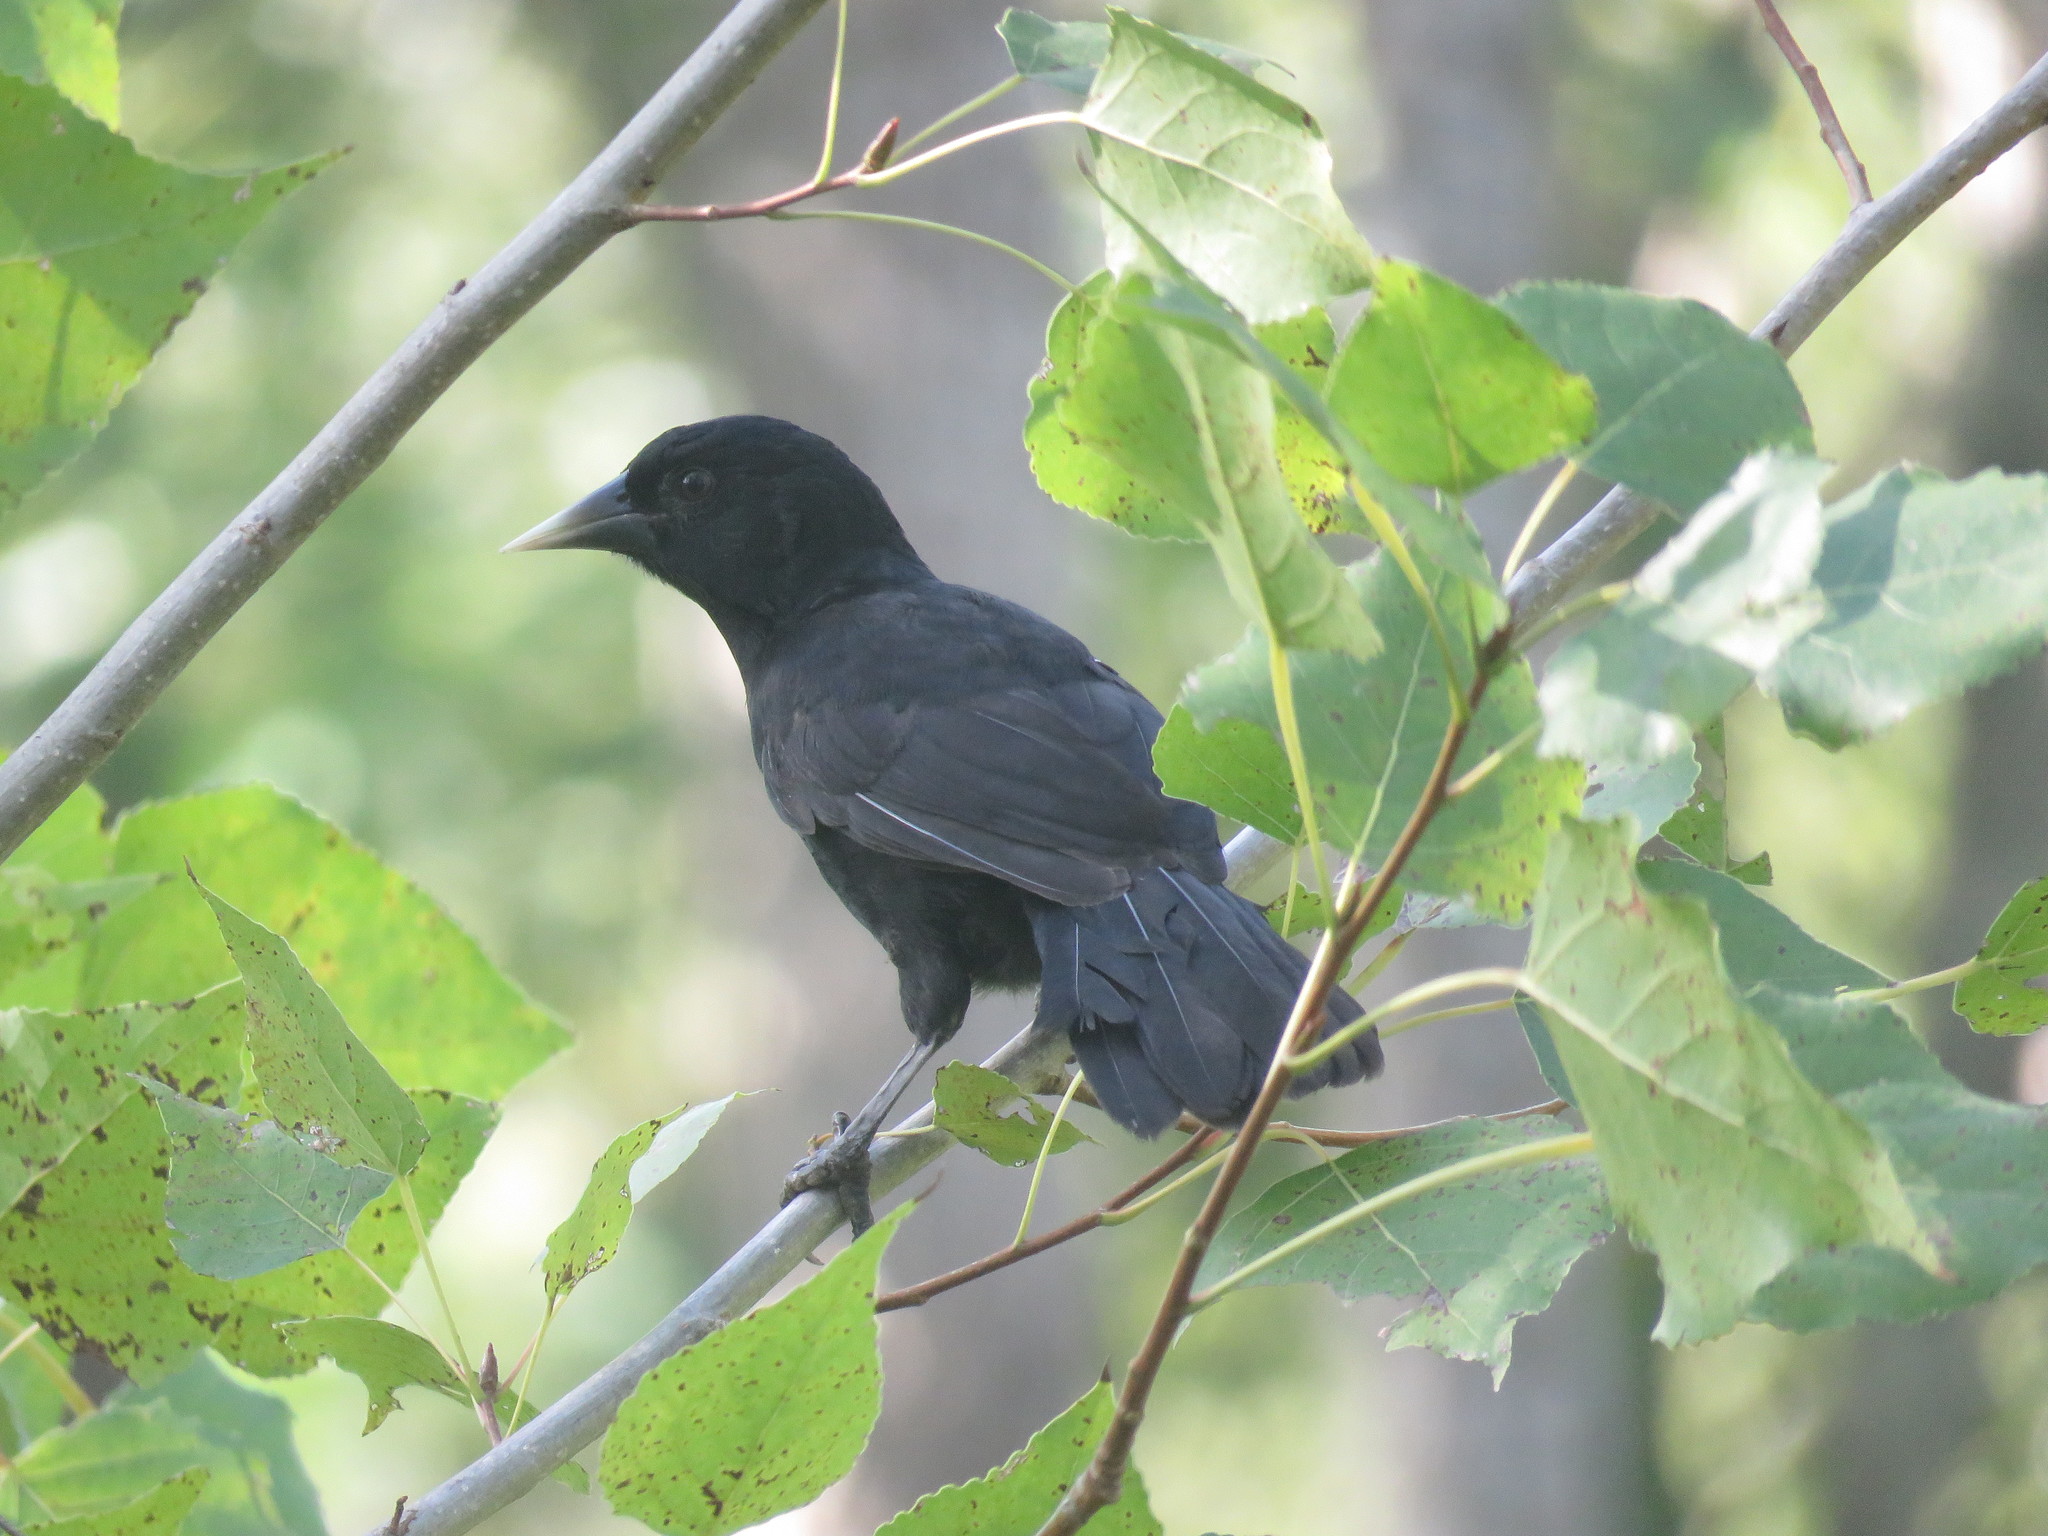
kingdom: Animalia
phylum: Chordata
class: Aves
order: Passeriformes
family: Icteridae
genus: Cacicus
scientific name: Cacicus solitarius
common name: Solitary cacique
